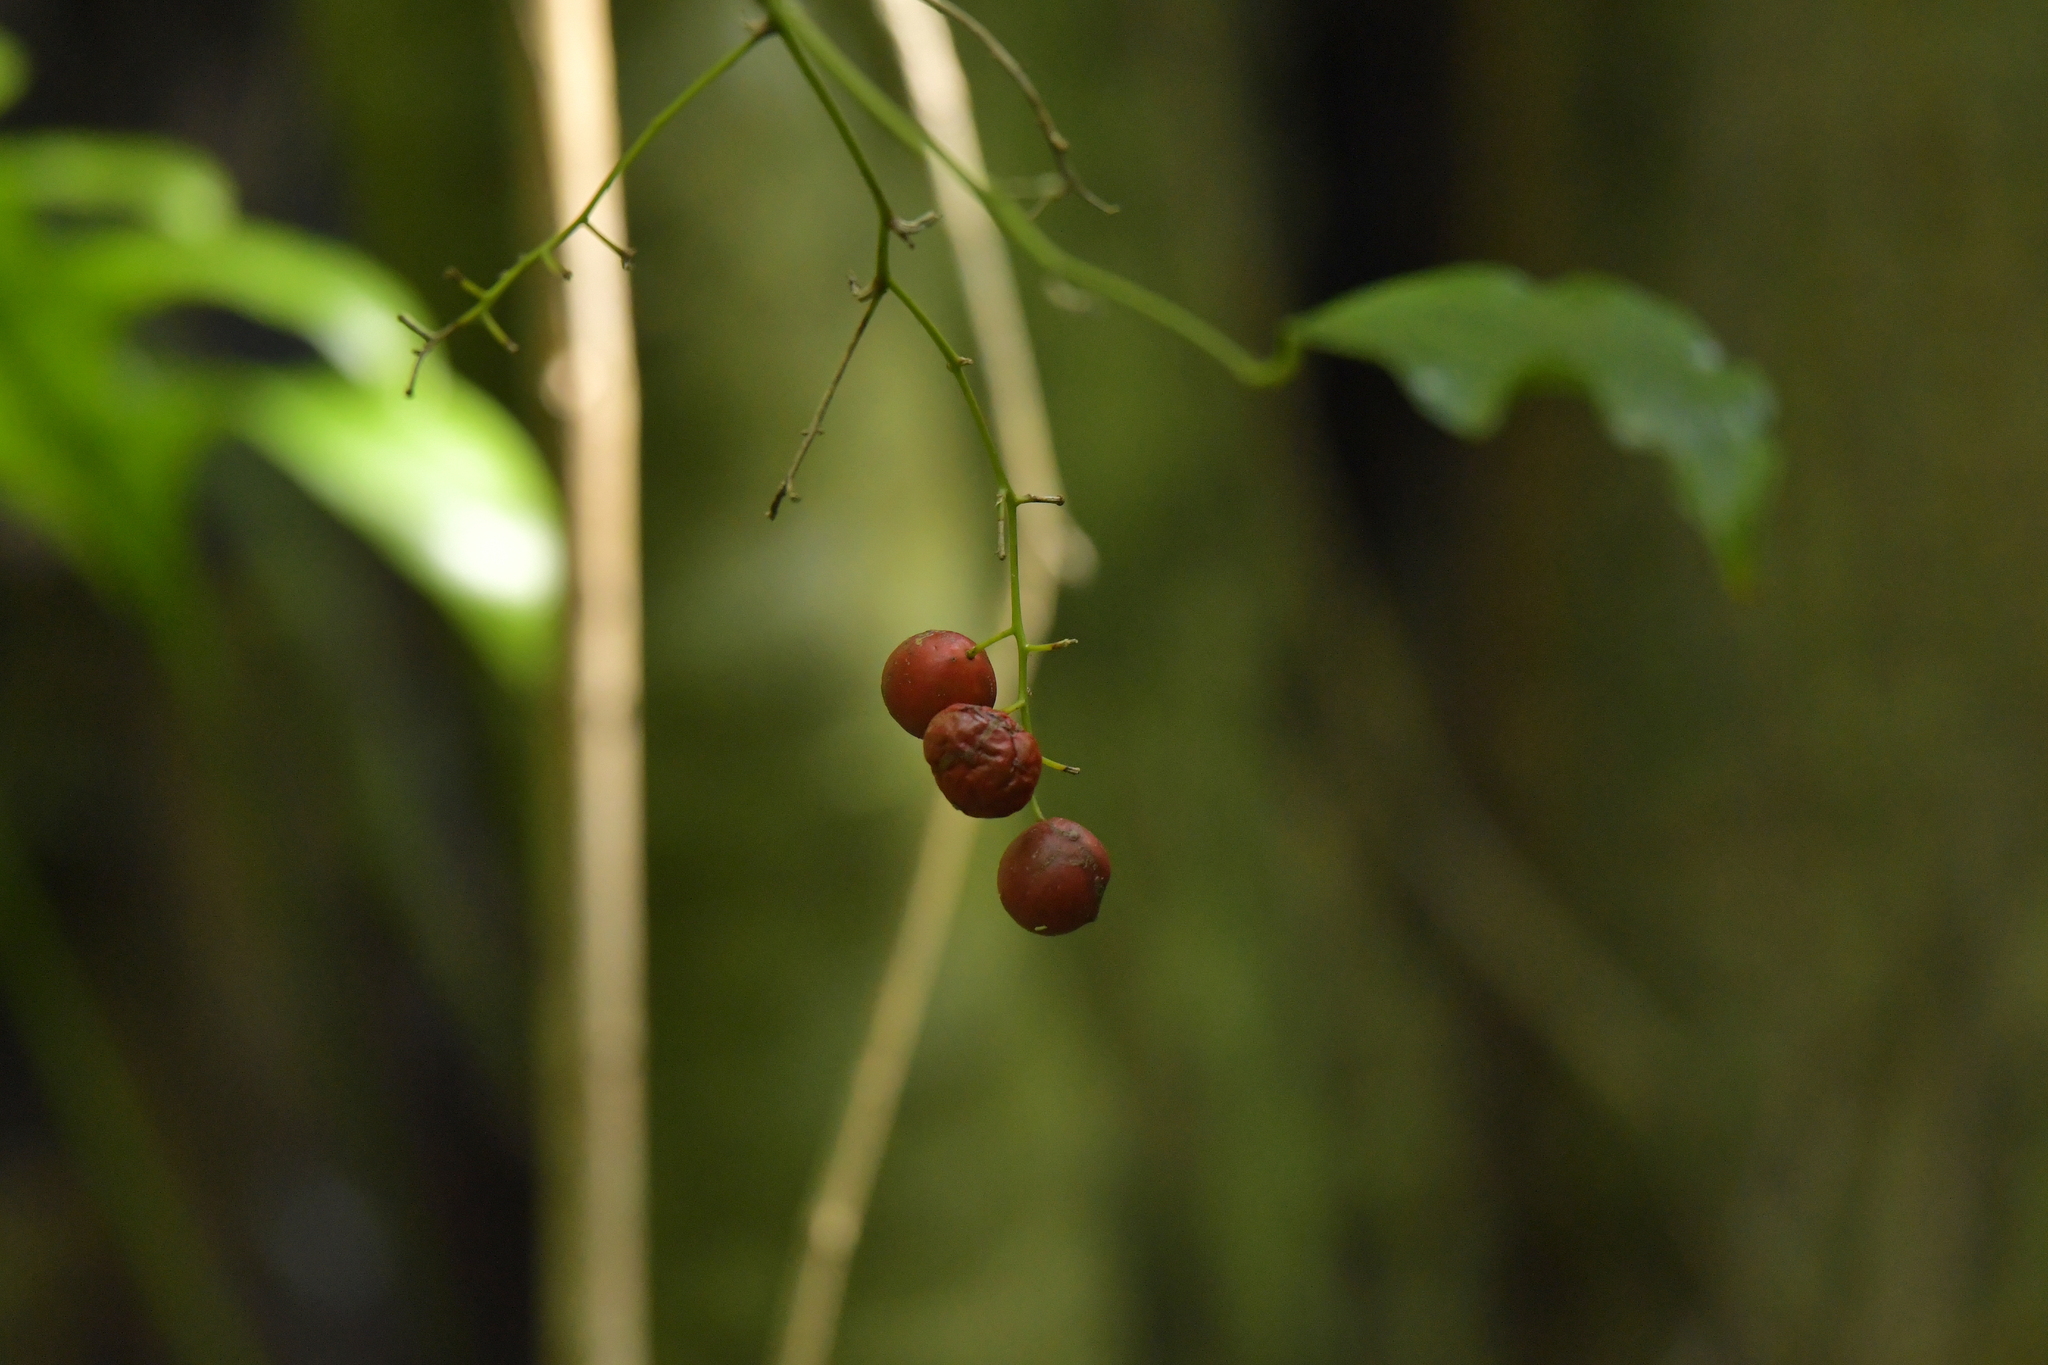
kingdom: Plantae
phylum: Tracheophyta
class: Liliopsida
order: Liliales
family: Ripogonaceae
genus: Ripogonum
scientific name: Ripogonum scandens
